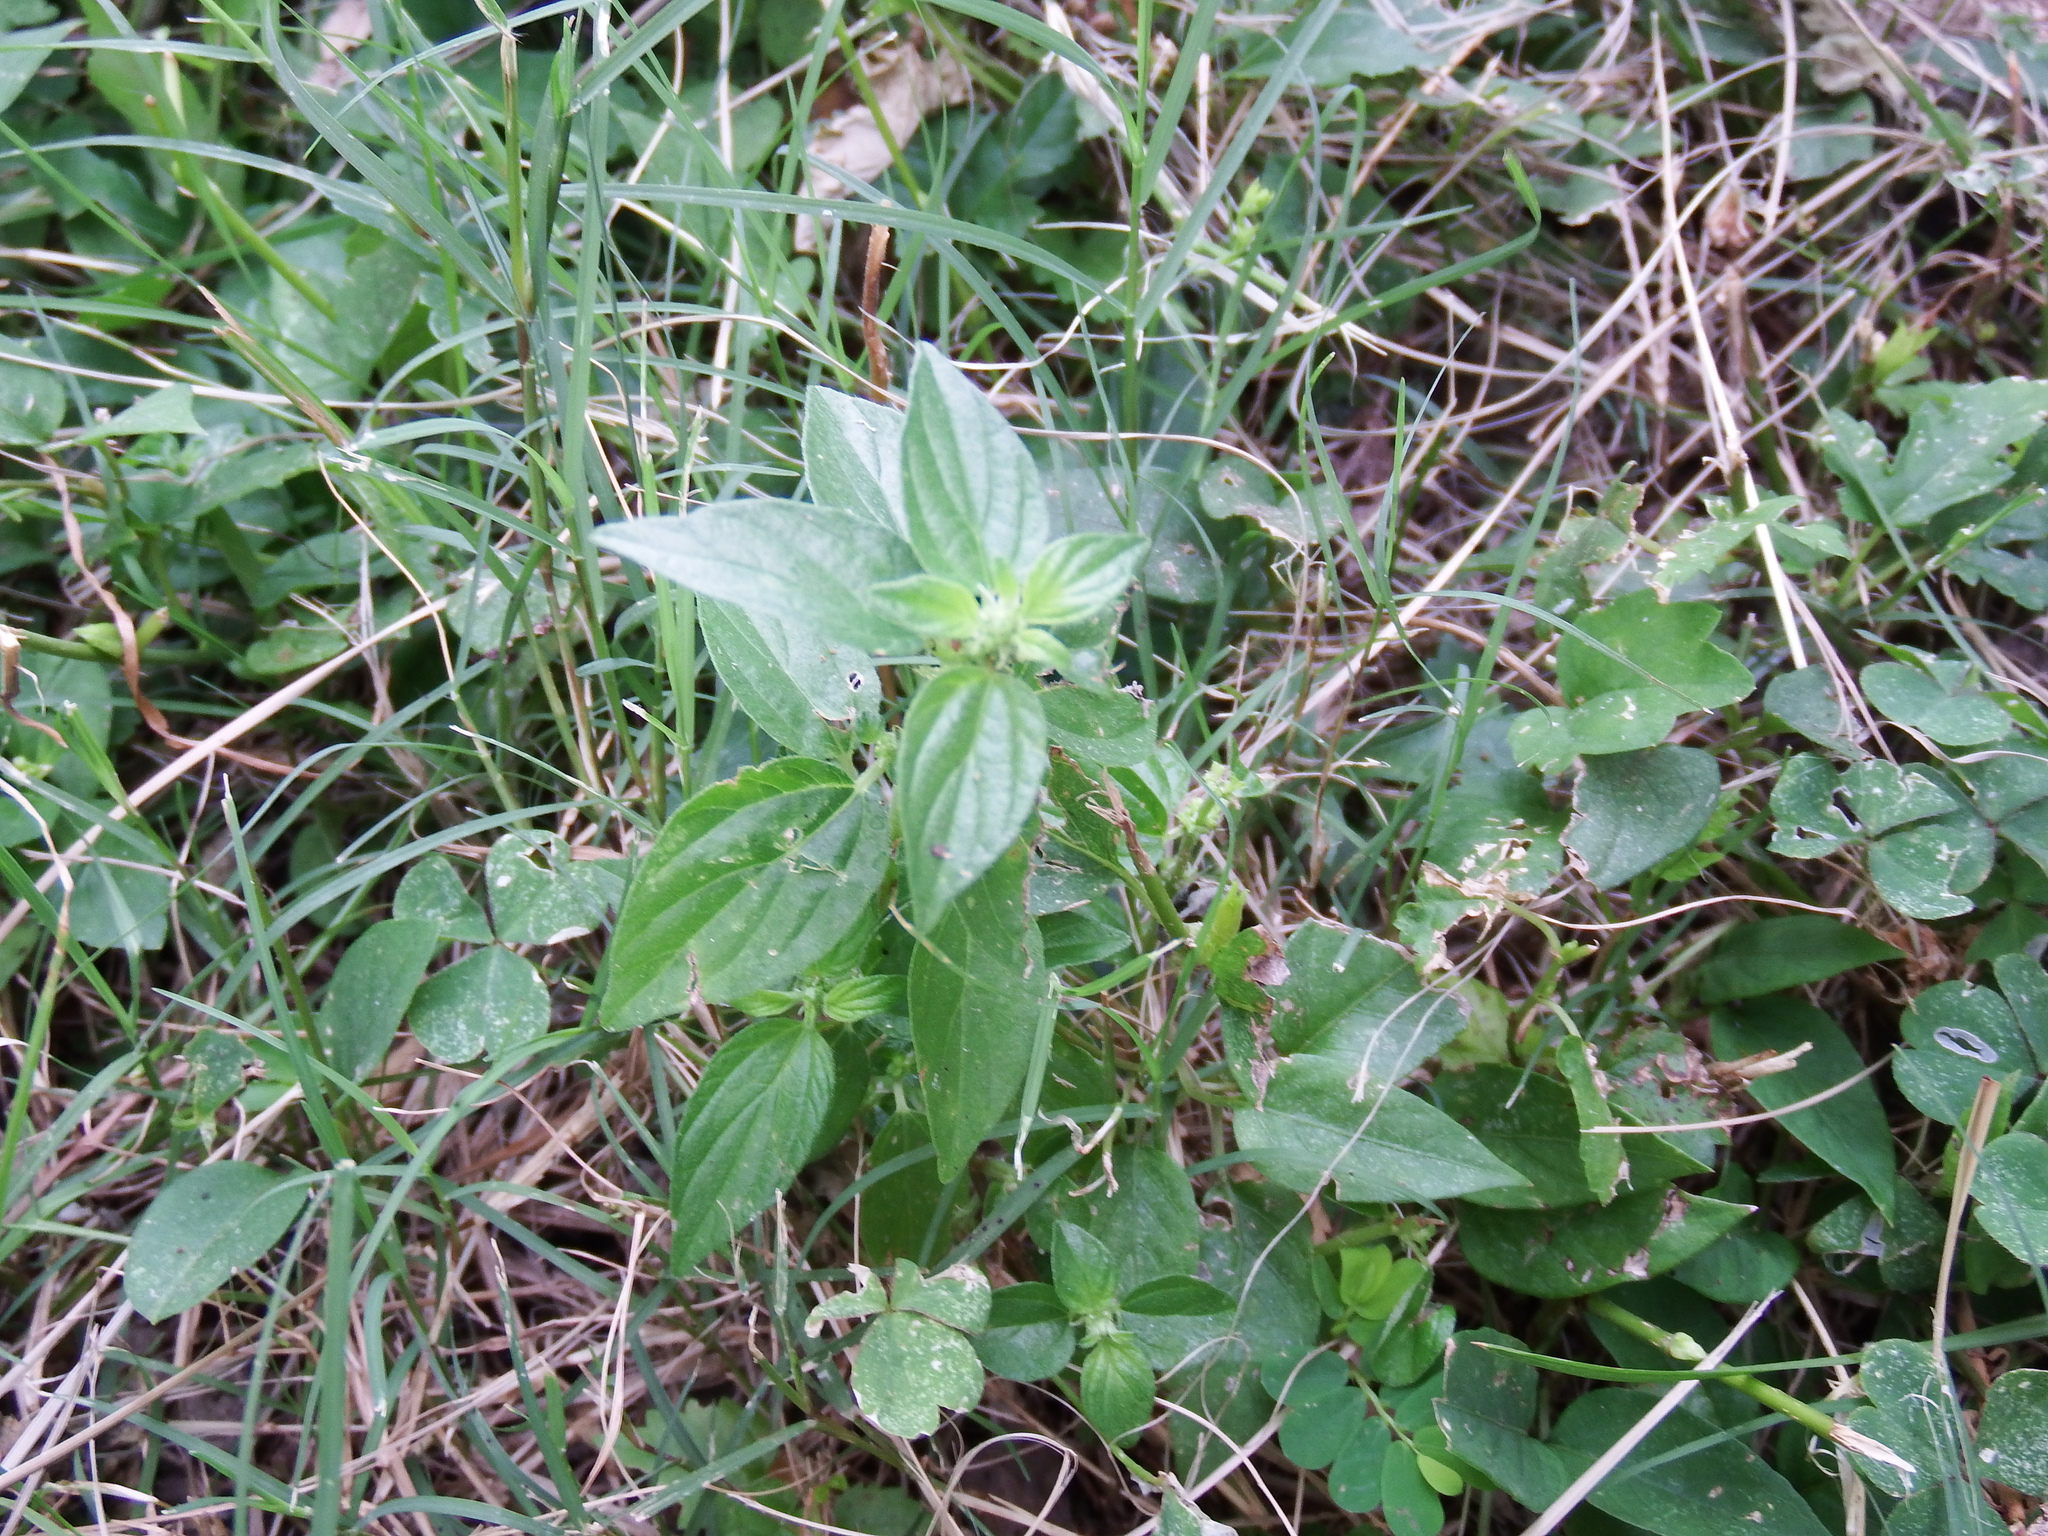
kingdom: Plantae
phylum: Tracheophyta
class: Magnoliopsida
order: Rosales
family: Urticaceae
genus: Pouzolzia
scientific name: Pouzolzia zeylanica
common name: Graceful pouzolzsbush
